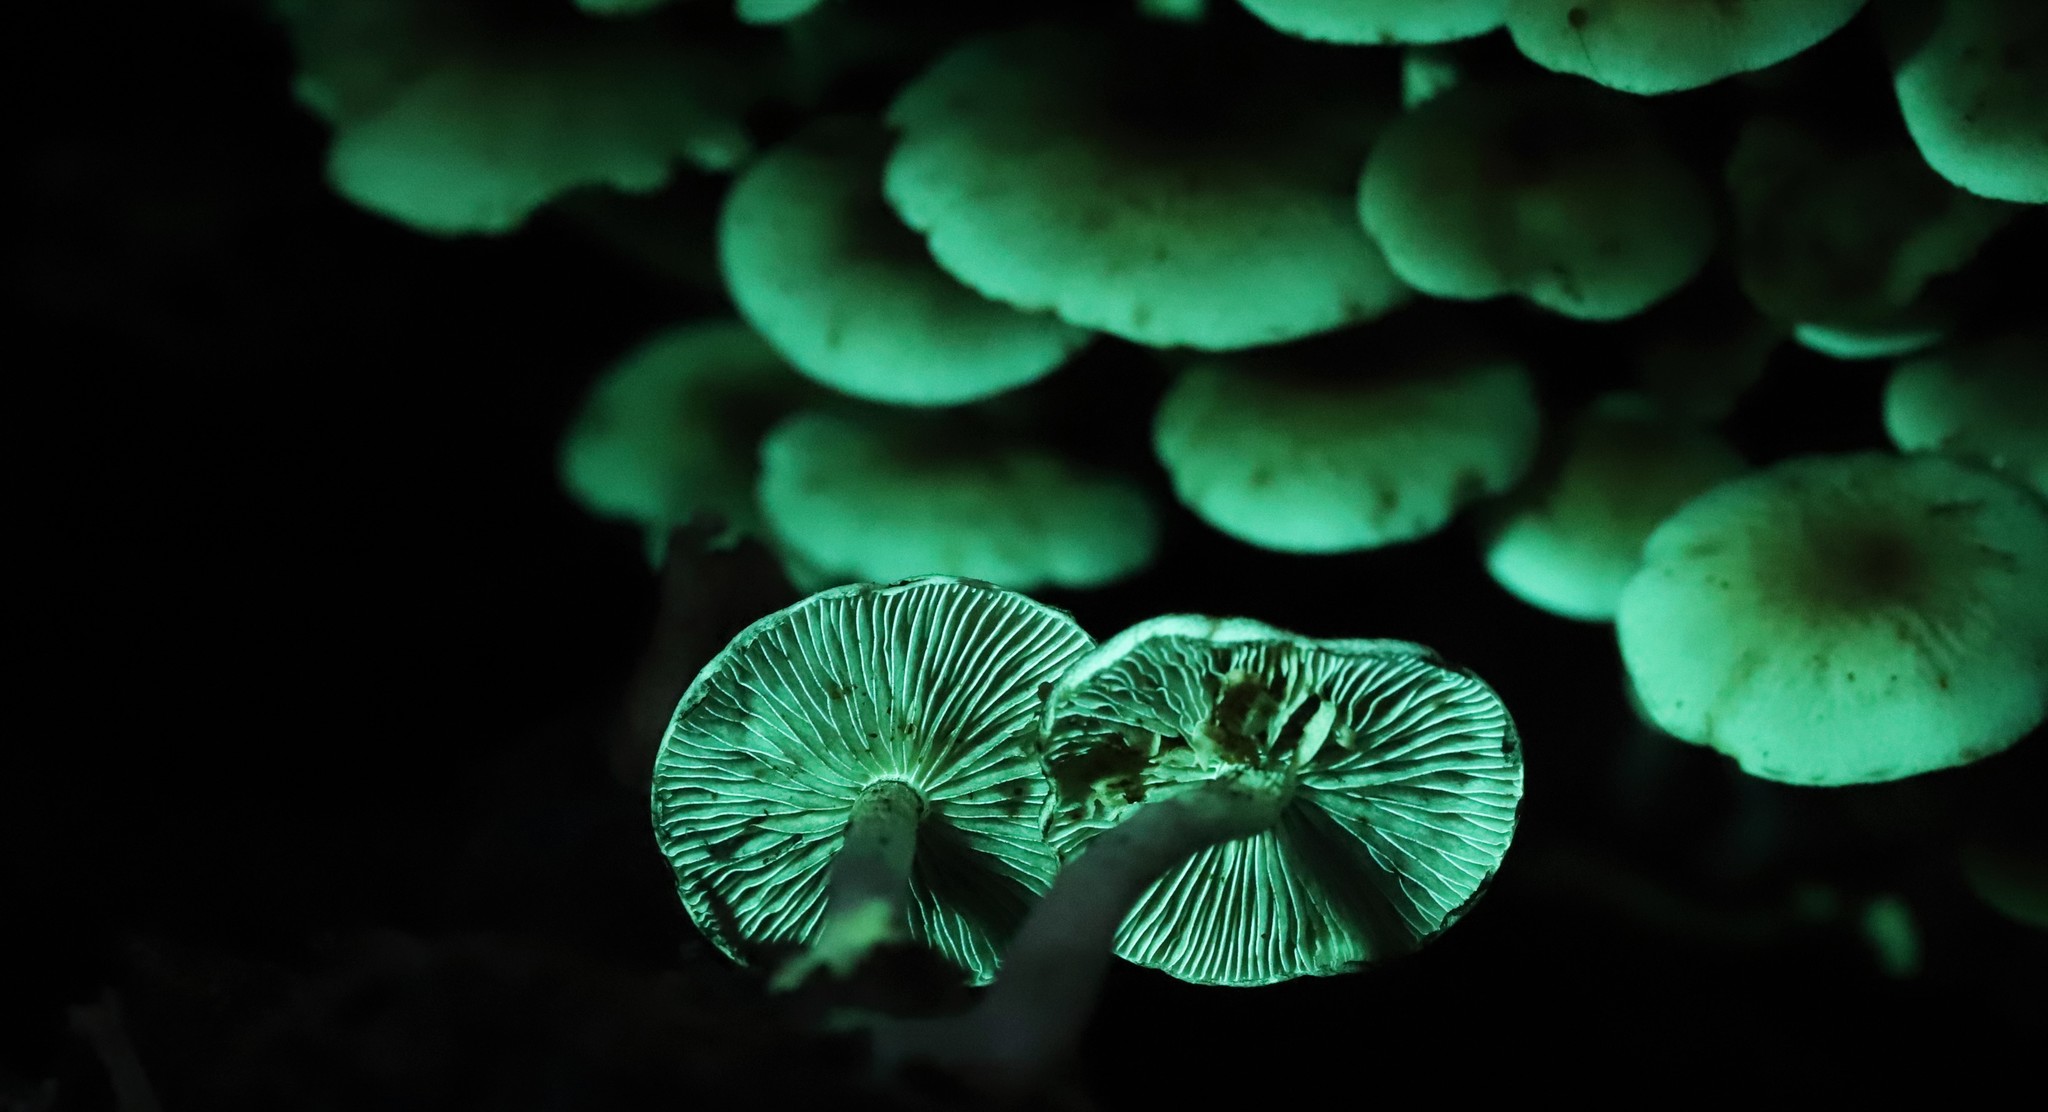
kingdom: Fungi
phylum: Basidiomycota
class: Agaricomycetes
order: Agaricales
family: Strophariaceae
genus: Hypholoma
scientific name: Hypholoma fasciculare
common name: Sulphur tuft
